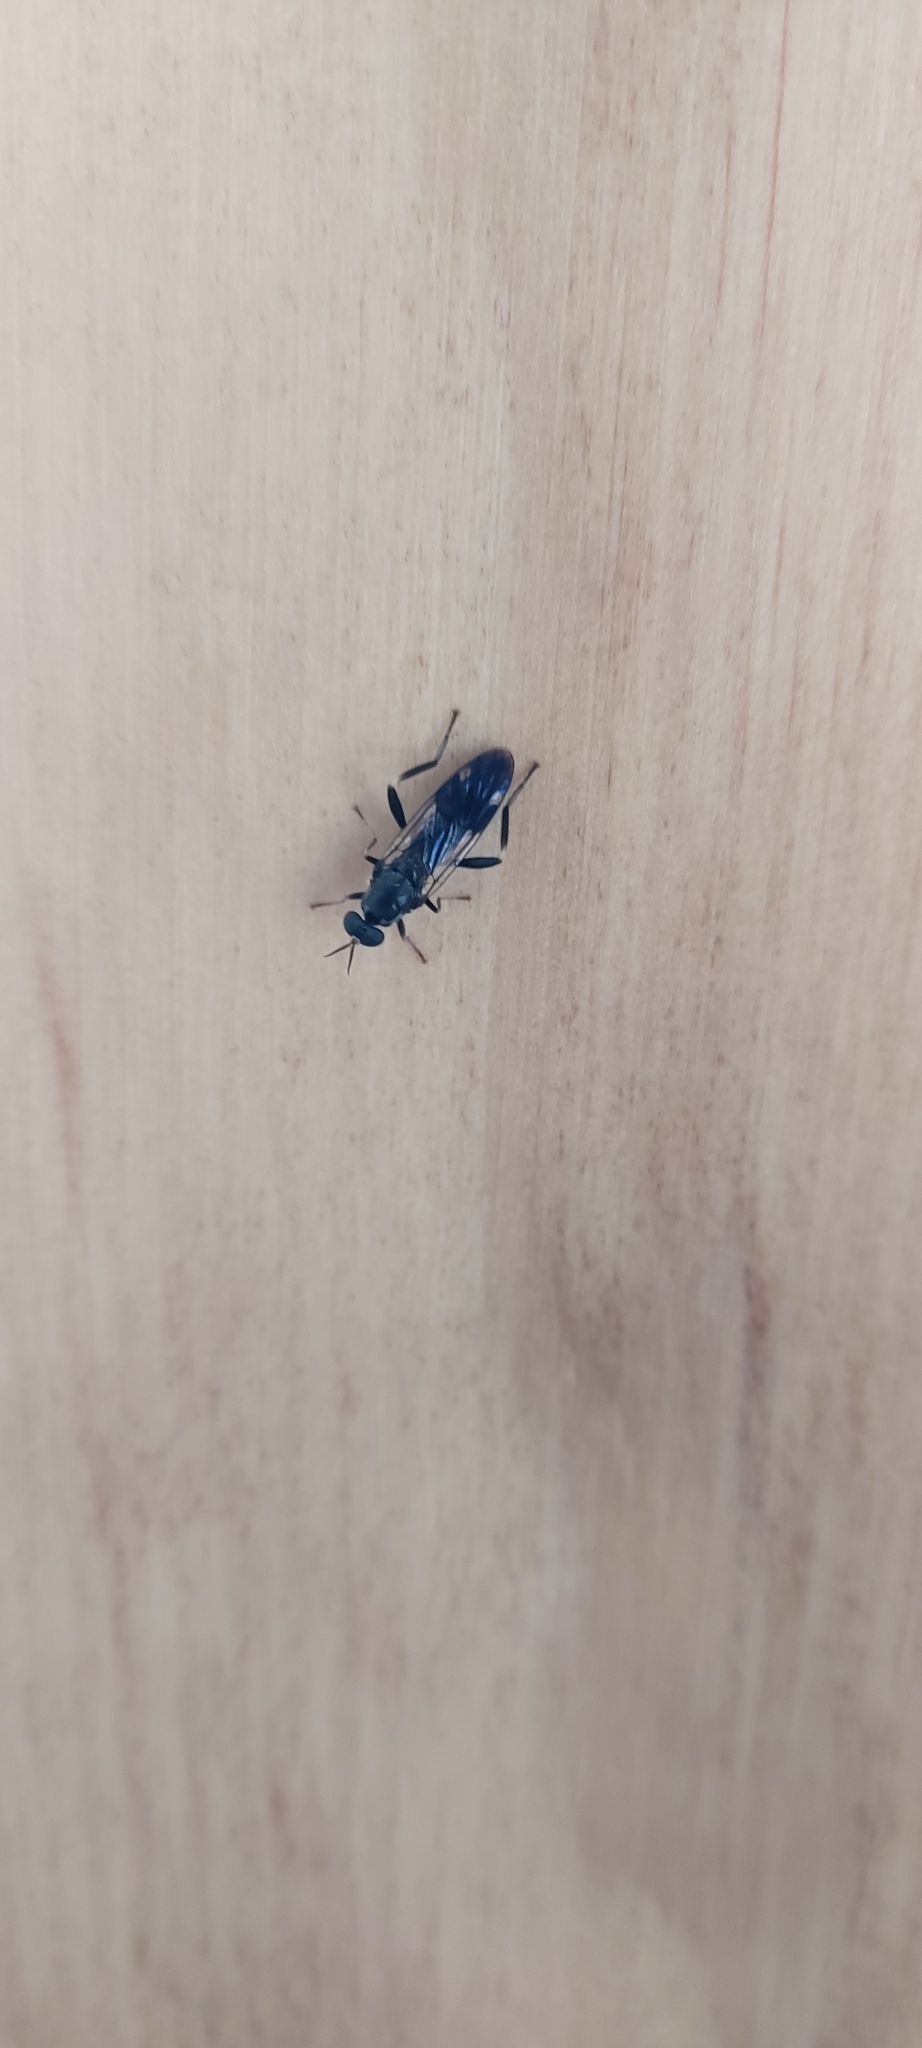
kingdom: Animalia
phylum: Arthropoda
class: Insecta
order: Diptera
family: Stratiomyidae
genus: Exaireta
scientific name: Exaireta spinigera
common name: Blue soldier fly
